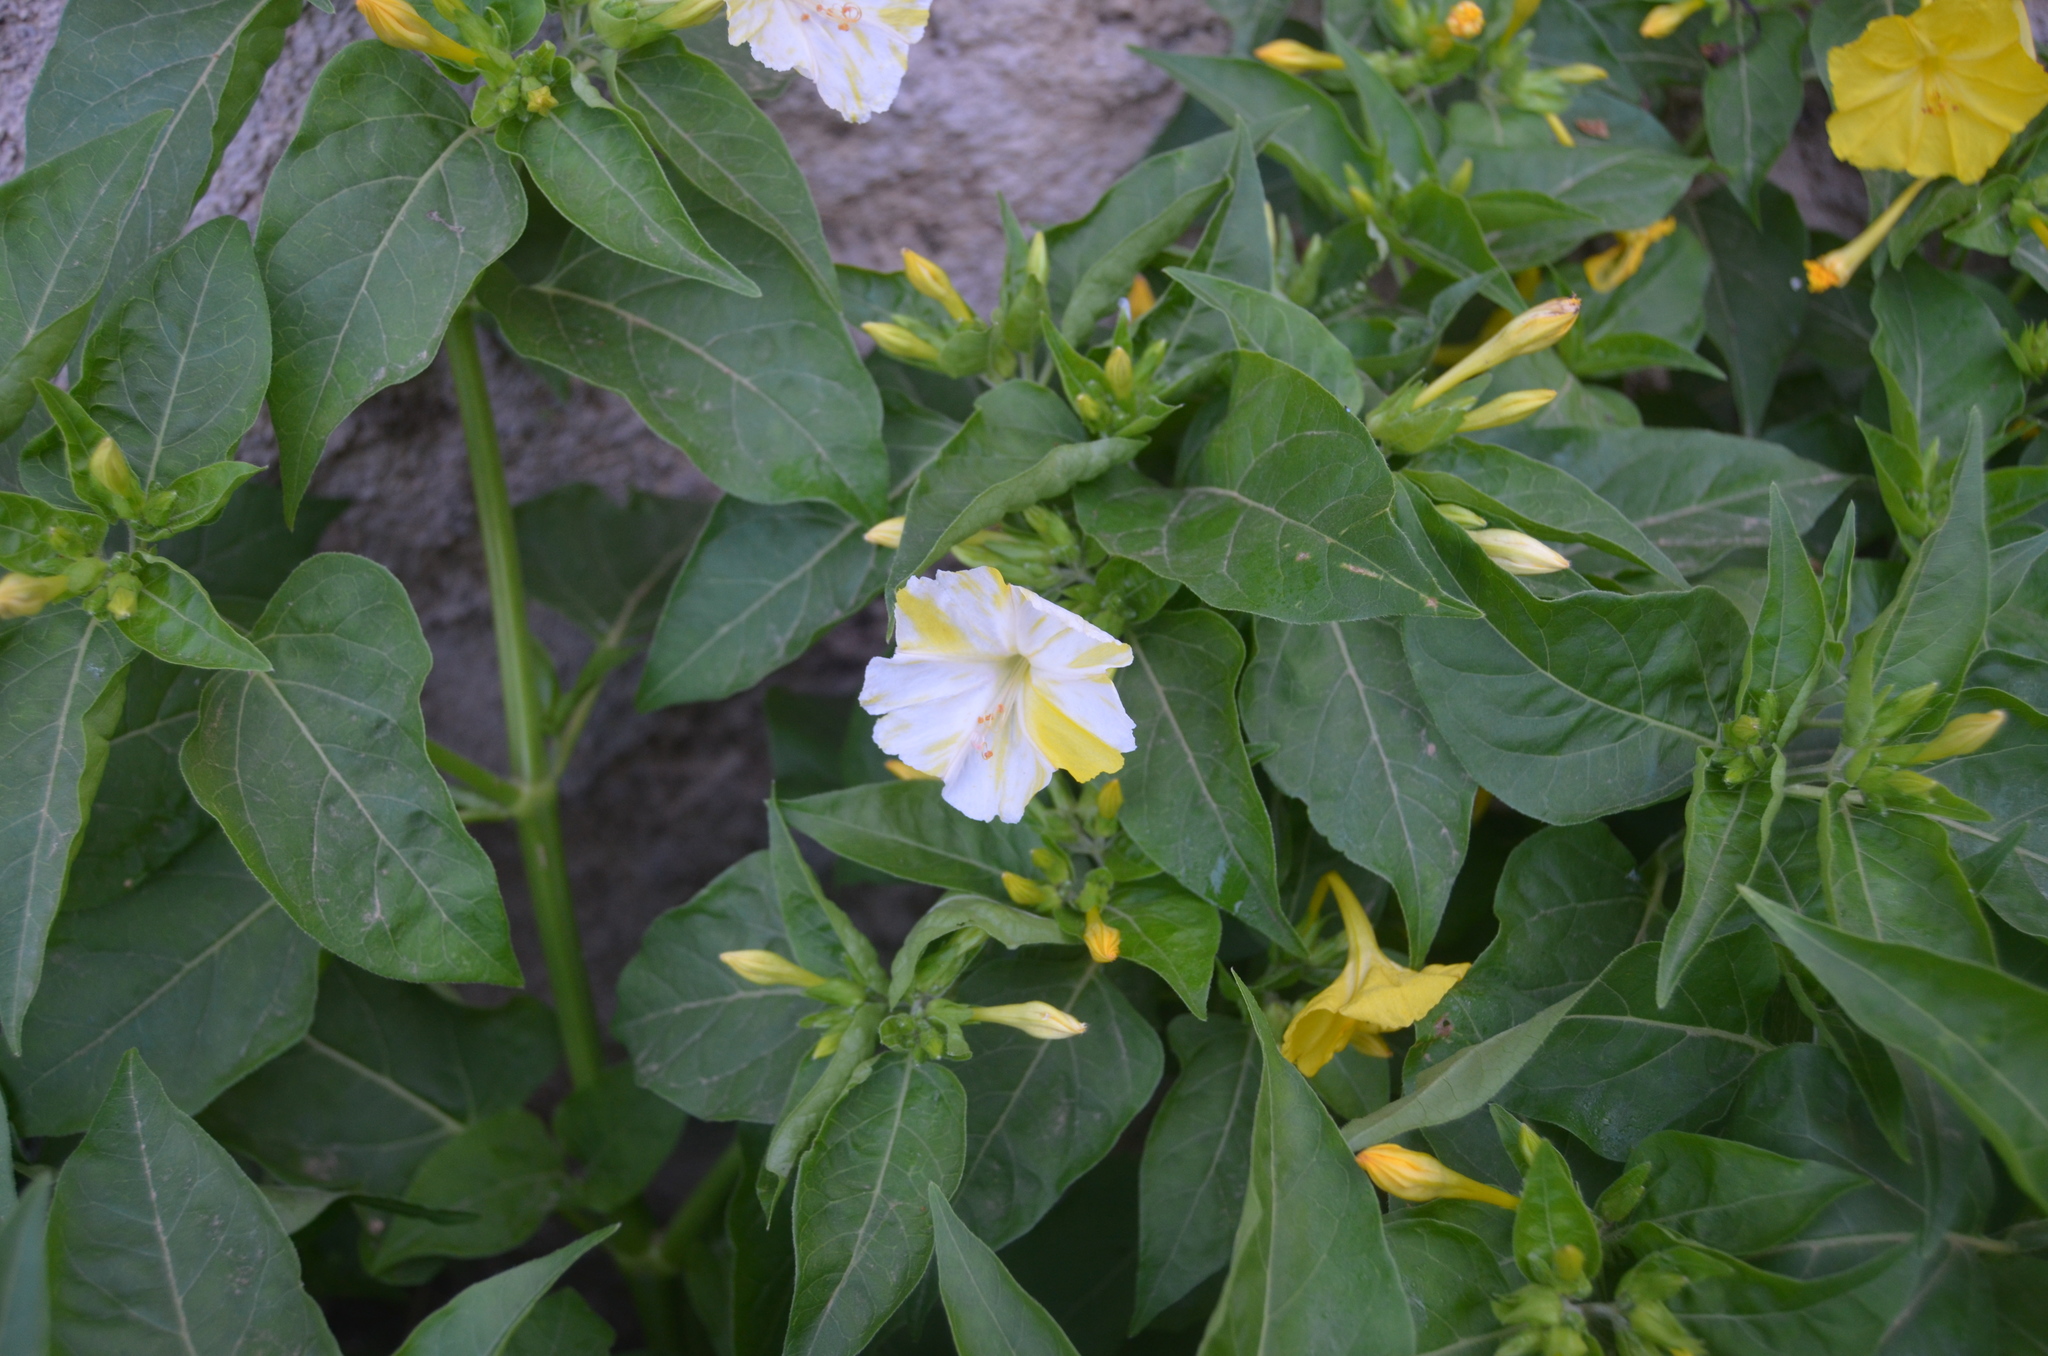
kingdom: Plantae
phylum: Tracheophyta
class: Magnoliopsida
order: Caryophyllales
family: Nyctaginaceae
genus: Mirabilis
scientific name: Mirabilis jalapa
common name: Marvel-of-peru
